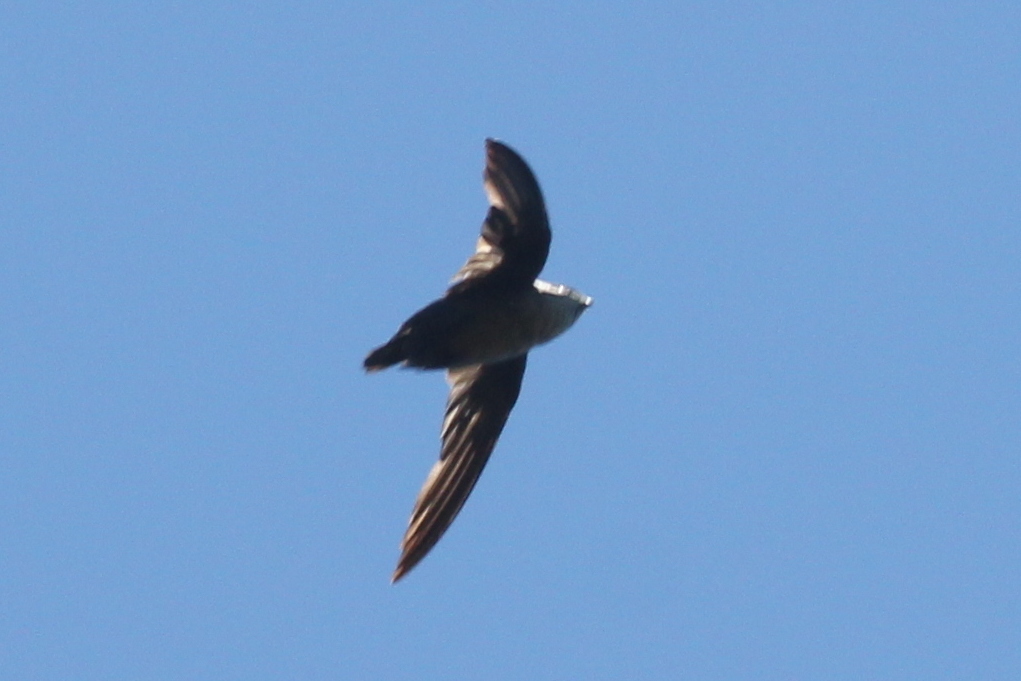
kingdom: Animalia
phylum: Chordata
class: Aves
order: Apodiformes
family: Apodidae
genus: Chaetura
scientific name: Chaetura vauxi
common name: Vaux's swift
